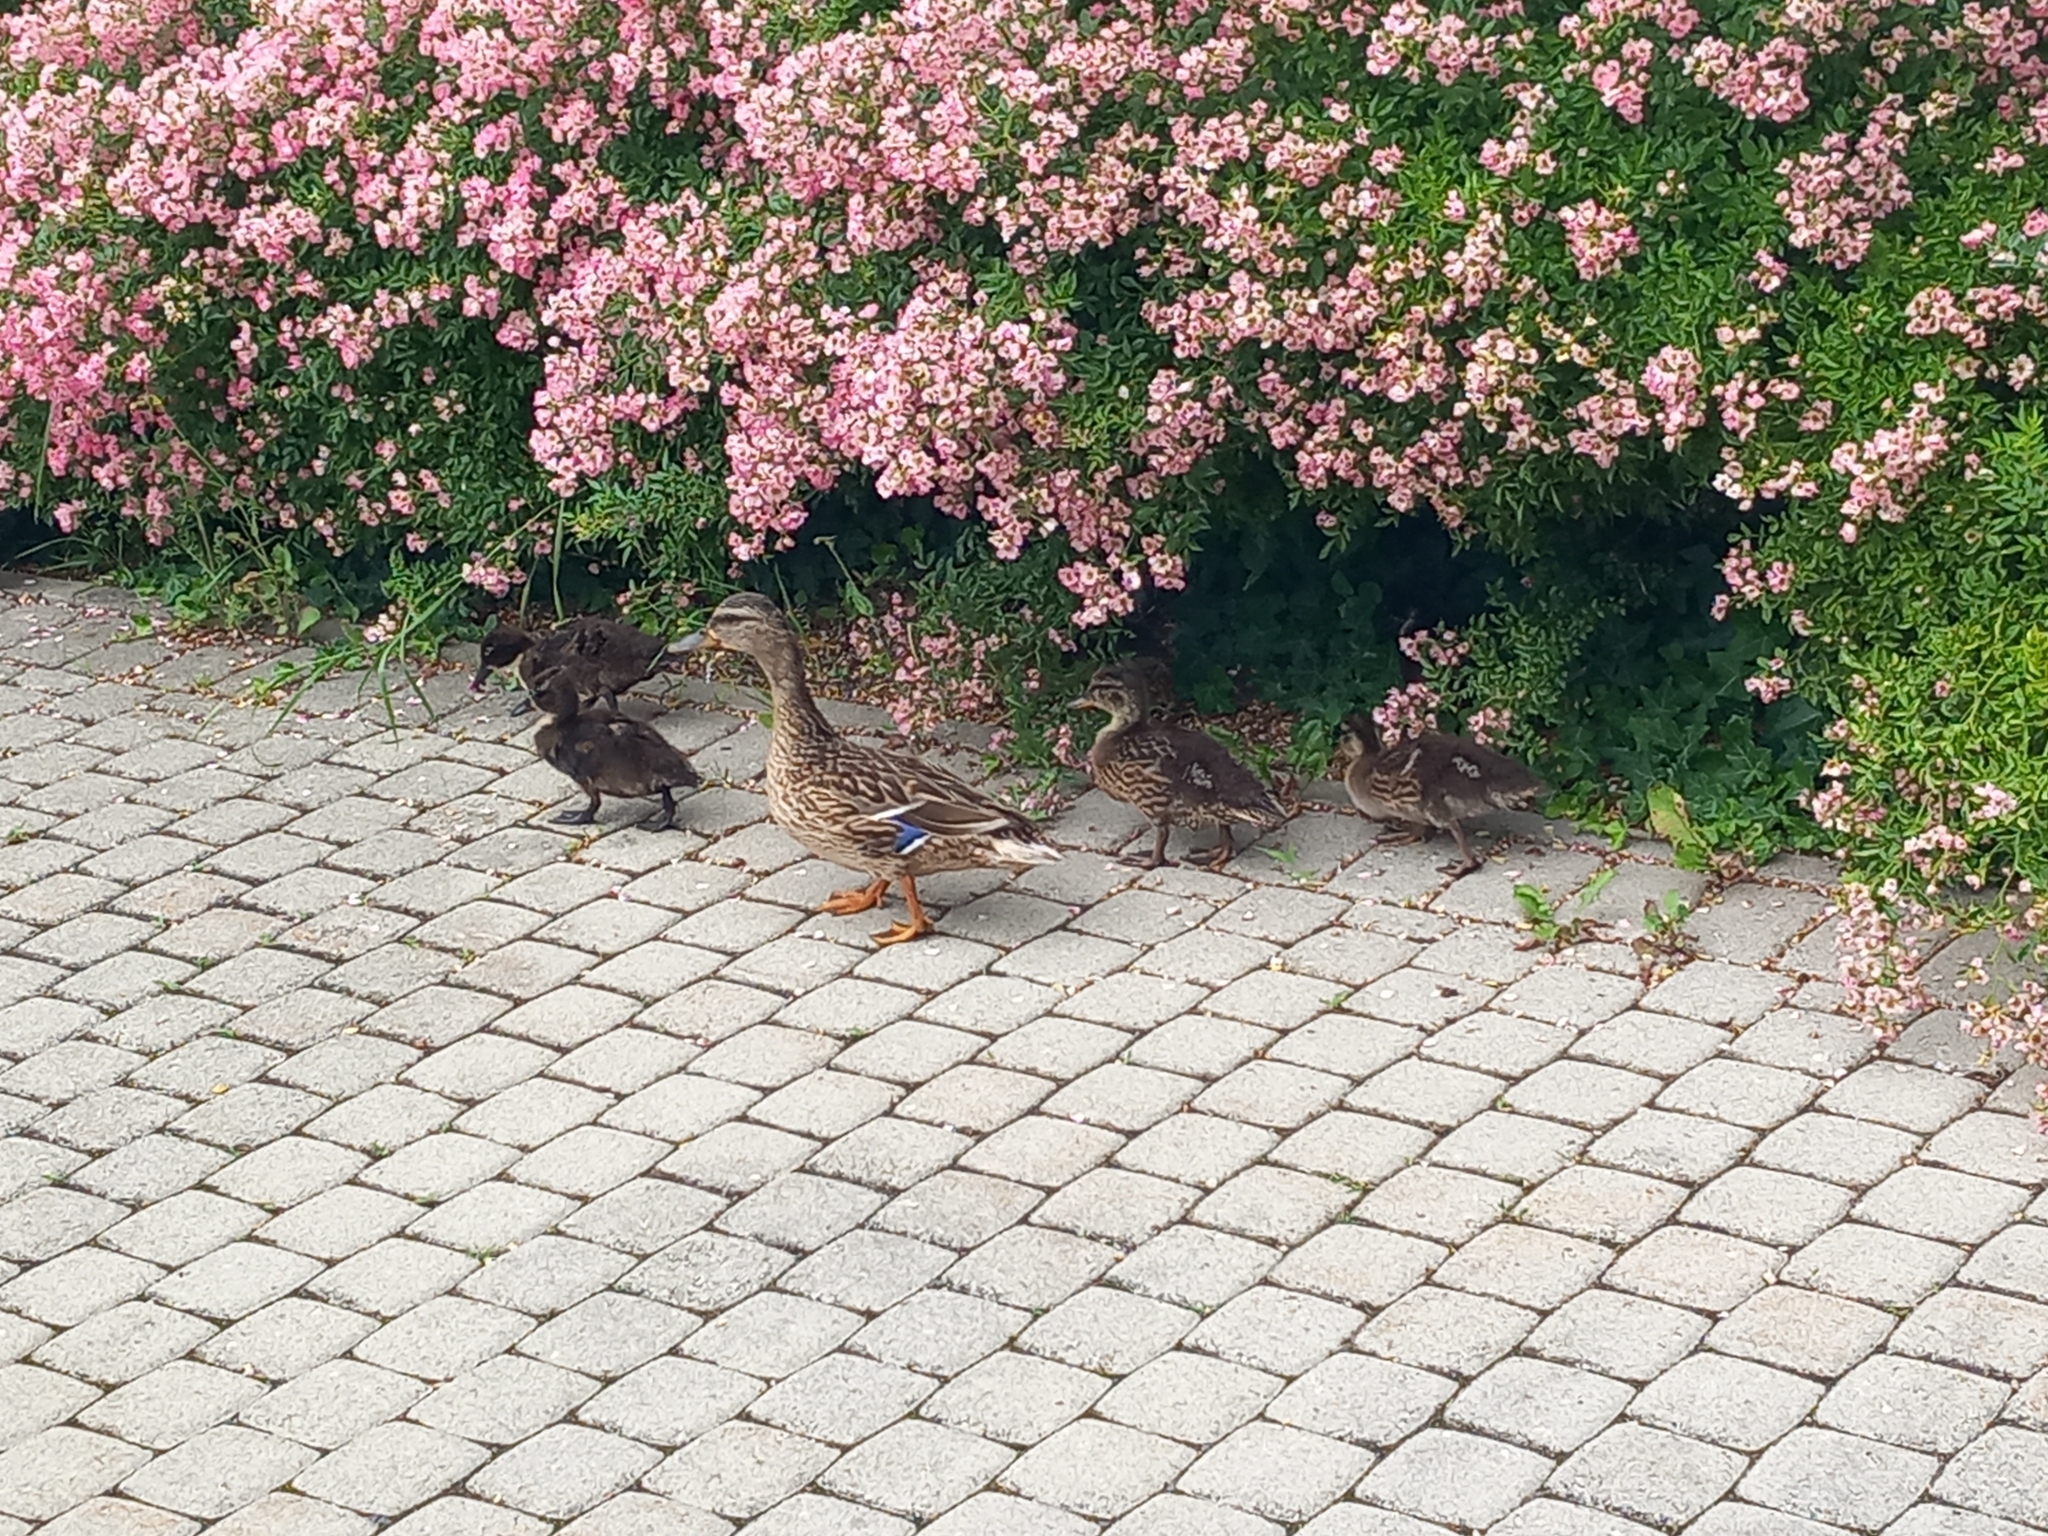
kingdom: Animalia
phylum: Chordata
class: Aves
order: Anseriformes
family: Anatidae
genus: Anas
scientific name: Anas platyrhynchos
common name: Mallard
